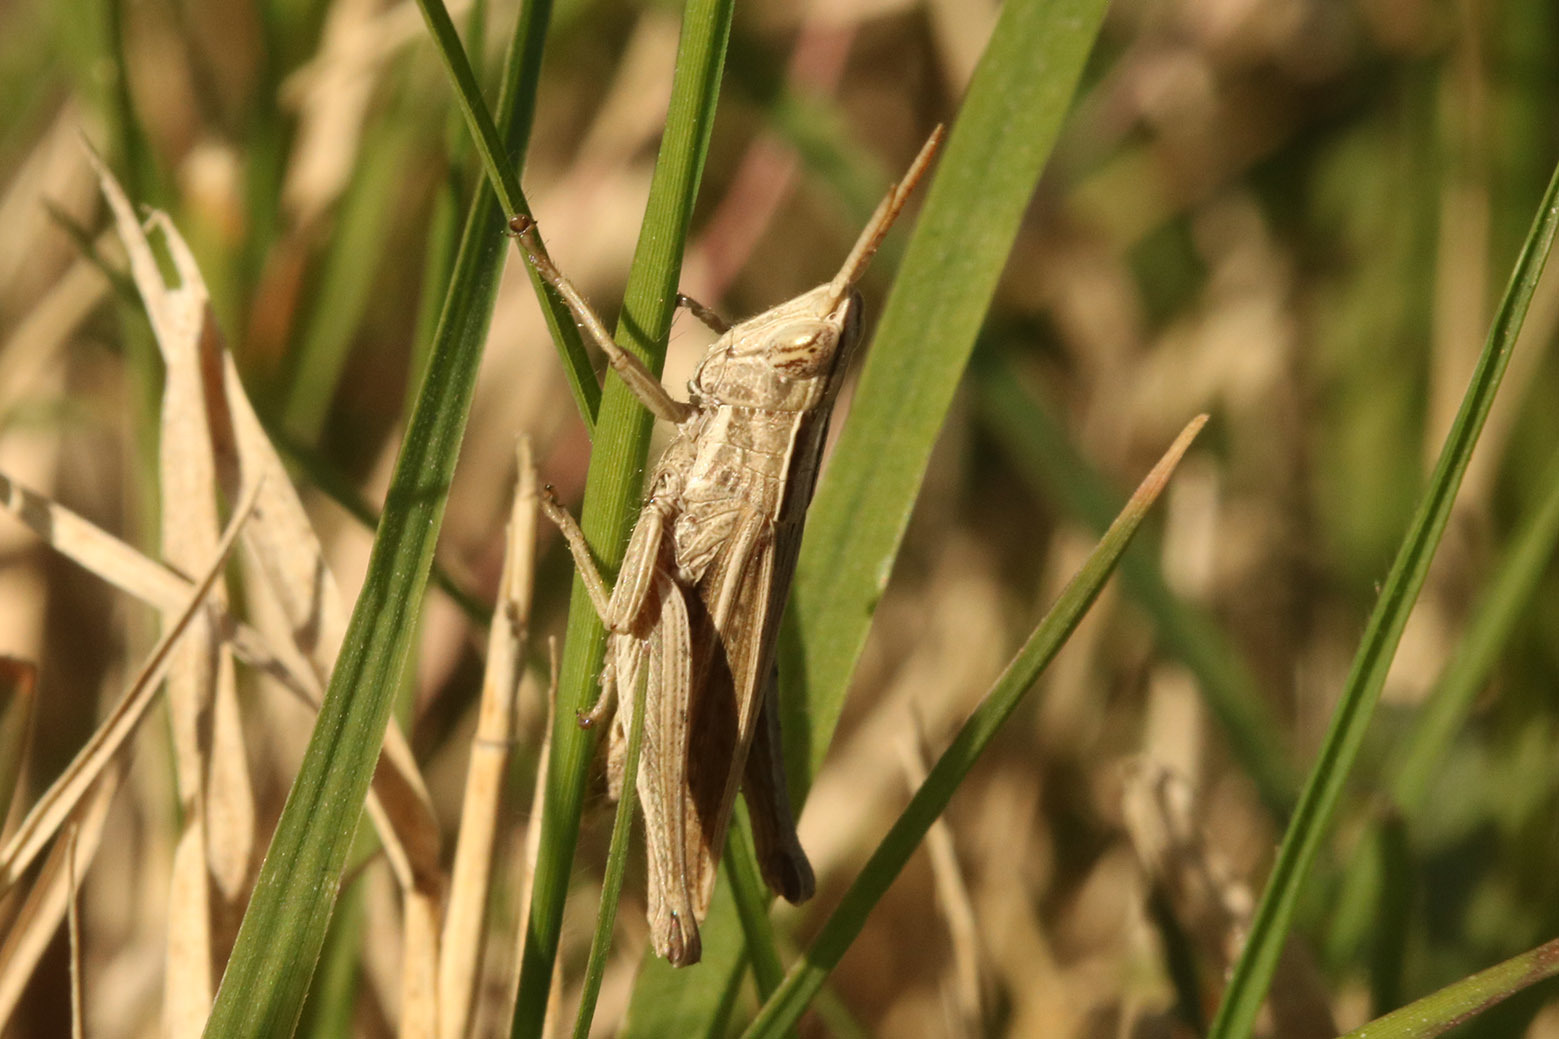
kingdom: Animalia
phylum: Arthropoda
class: Insecta
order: Orthoptera
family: Acrididae
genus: Laplatacris
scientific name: Laplatacris dispar
